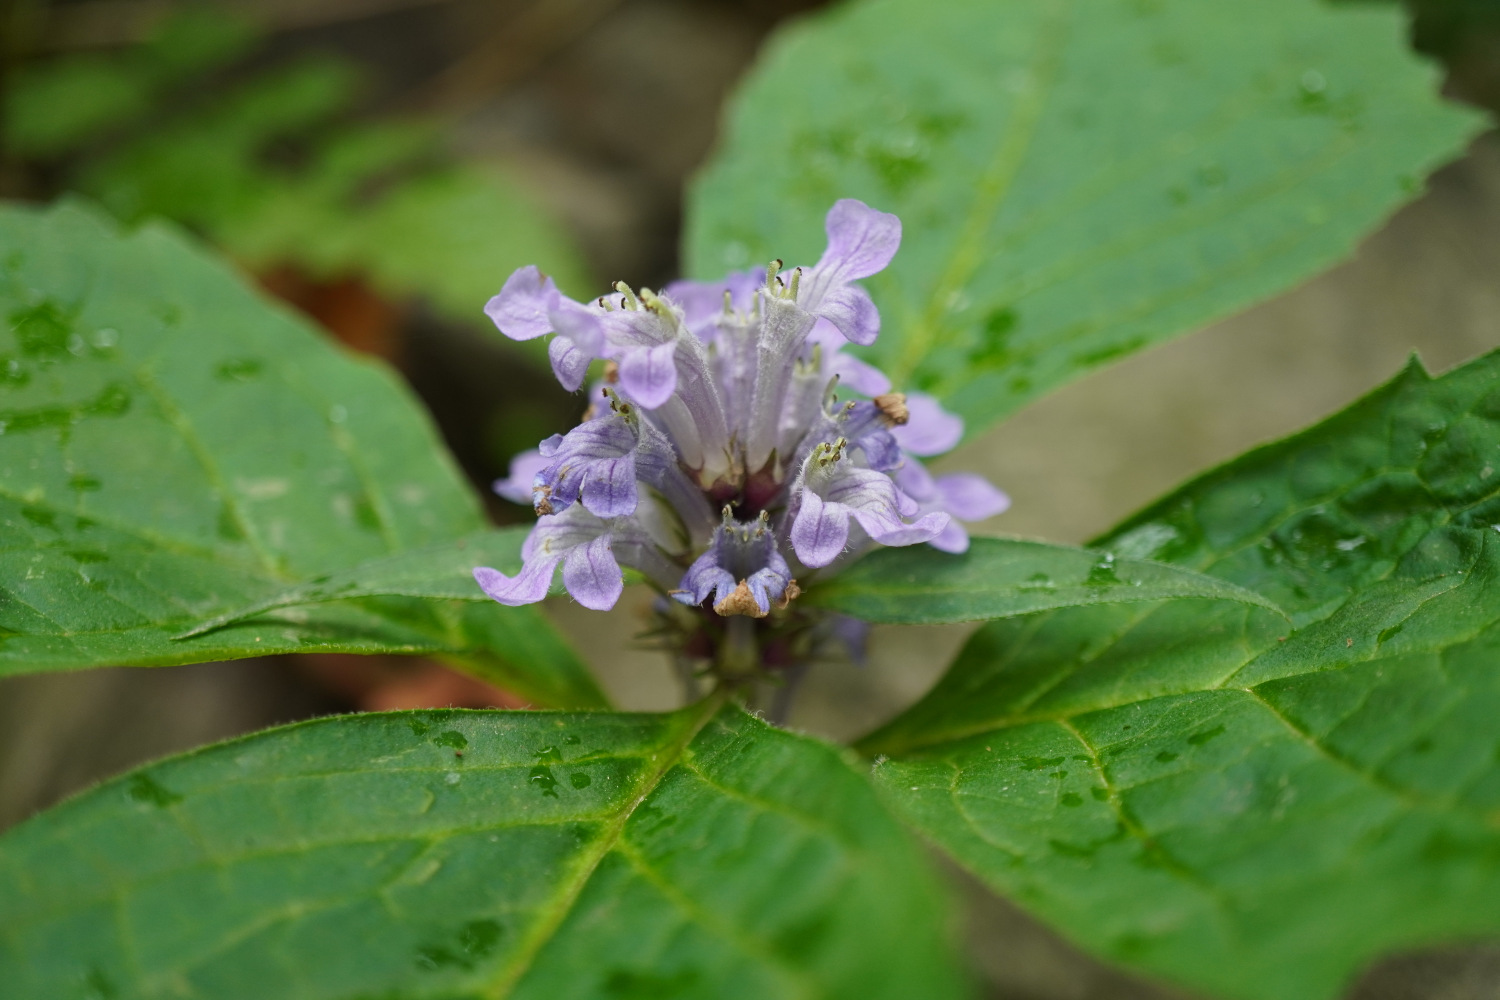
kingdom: Plantae
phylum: Tracheophyta
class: Magnoliopsida
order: Lamiales
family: Lamiaceae
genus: Ajuga
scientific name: Ajuga spectabilis
